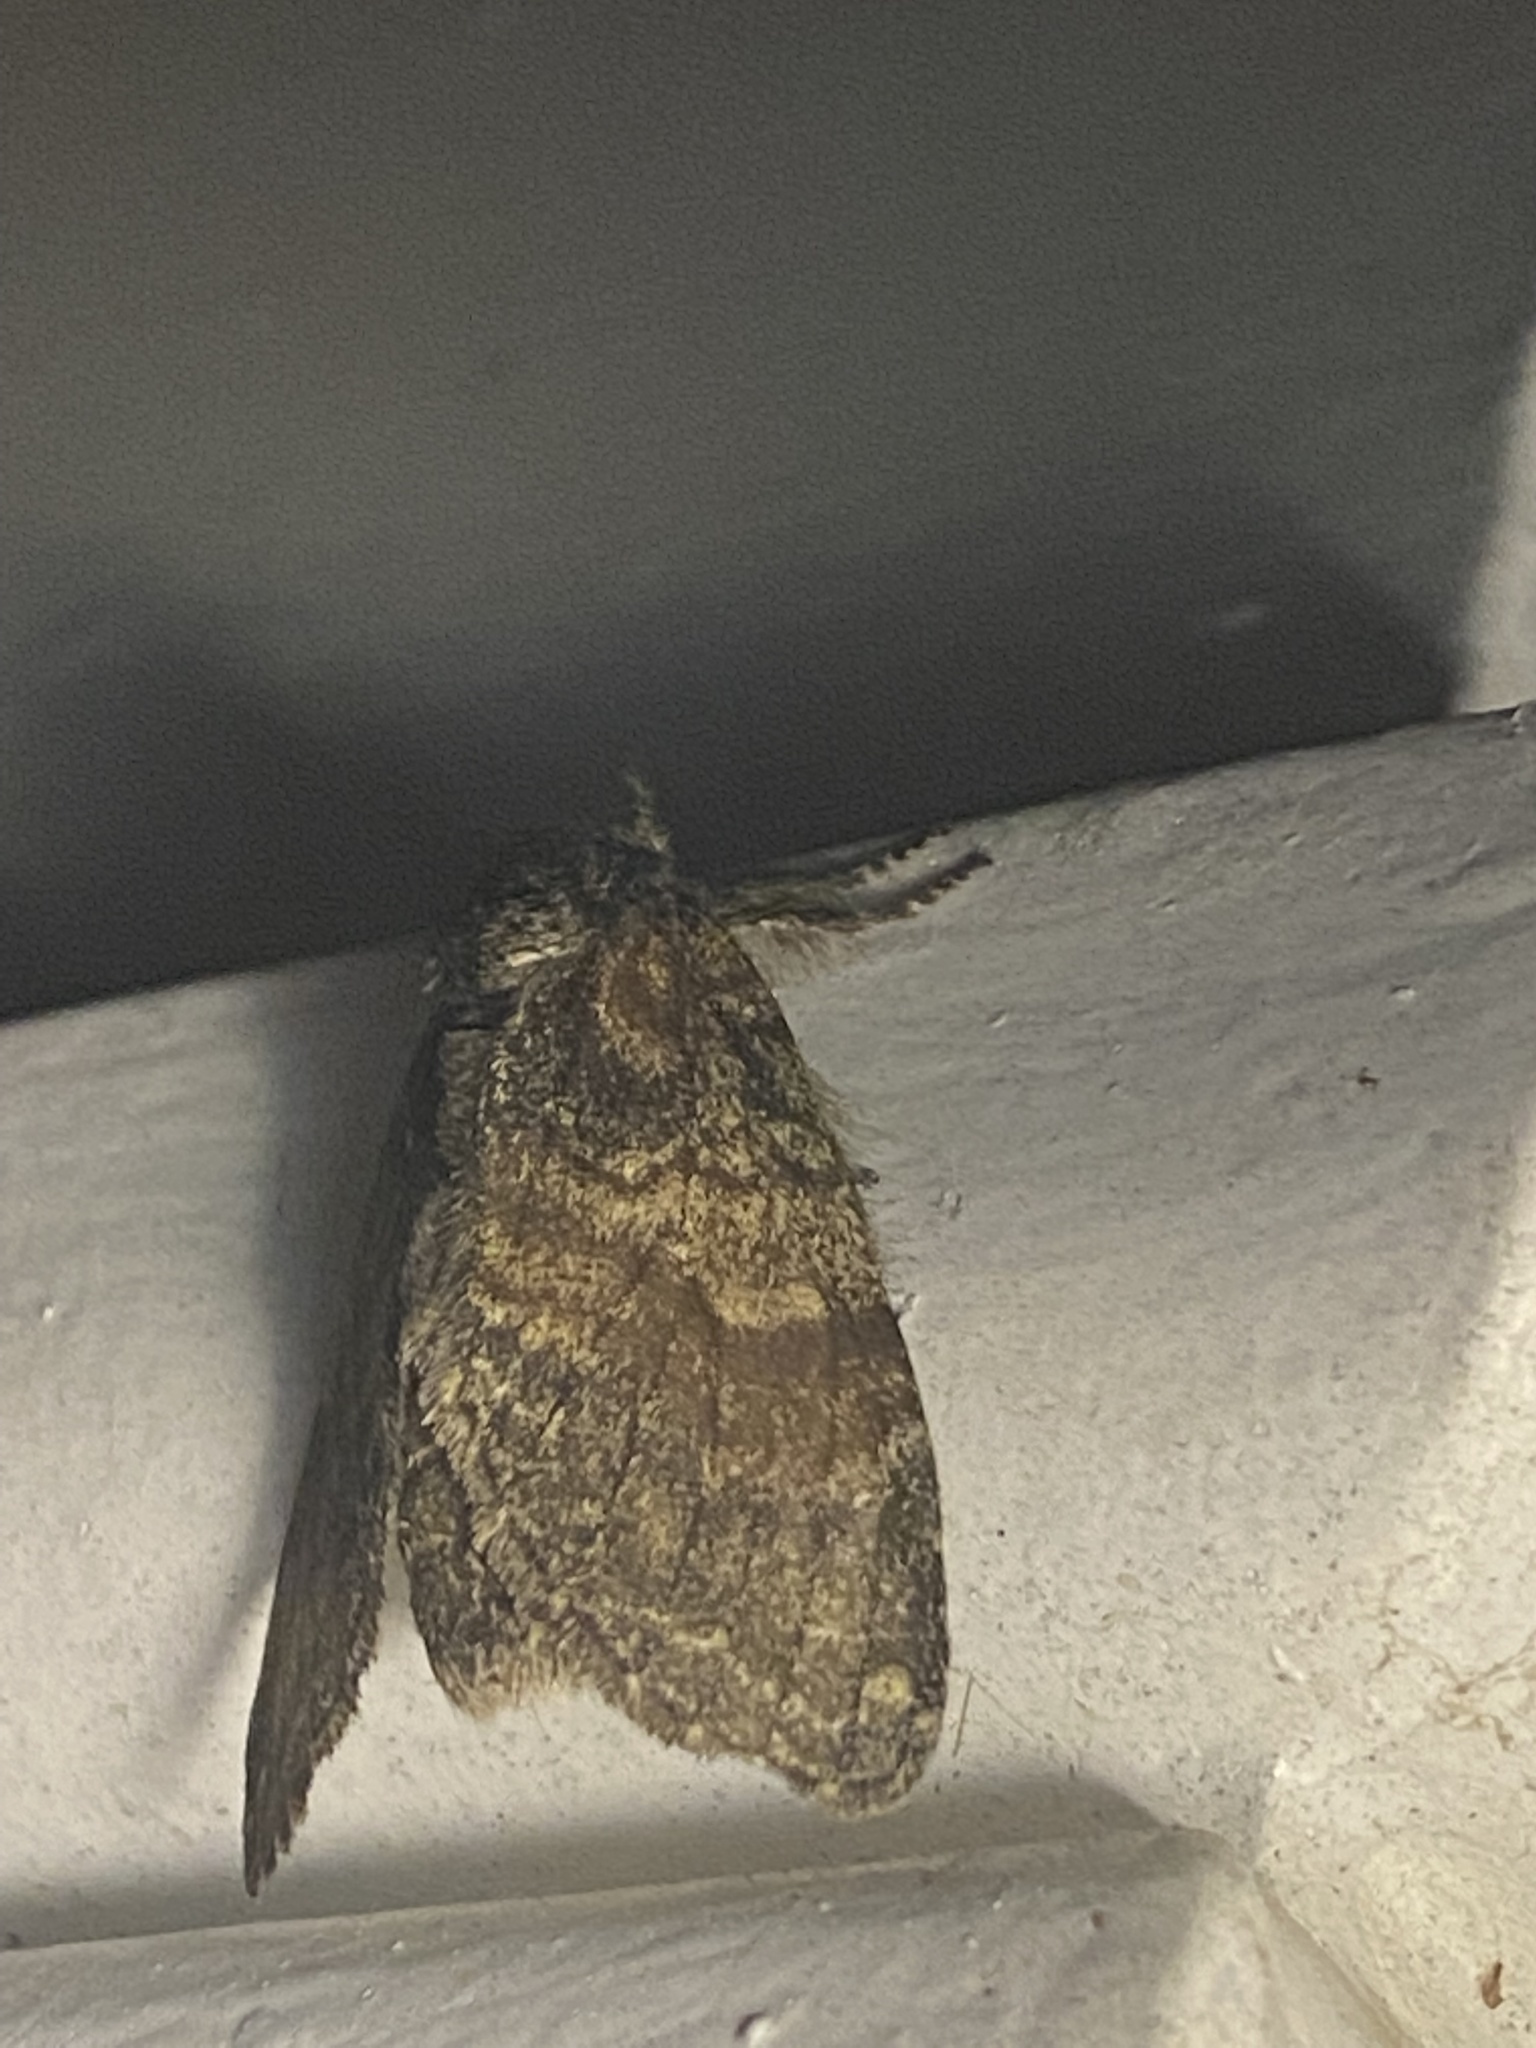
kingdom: Animalia
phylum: Arthropoda
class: Insecta
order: Lepidoptera
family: Notodontidae
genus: Peridea
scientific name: Peridea
